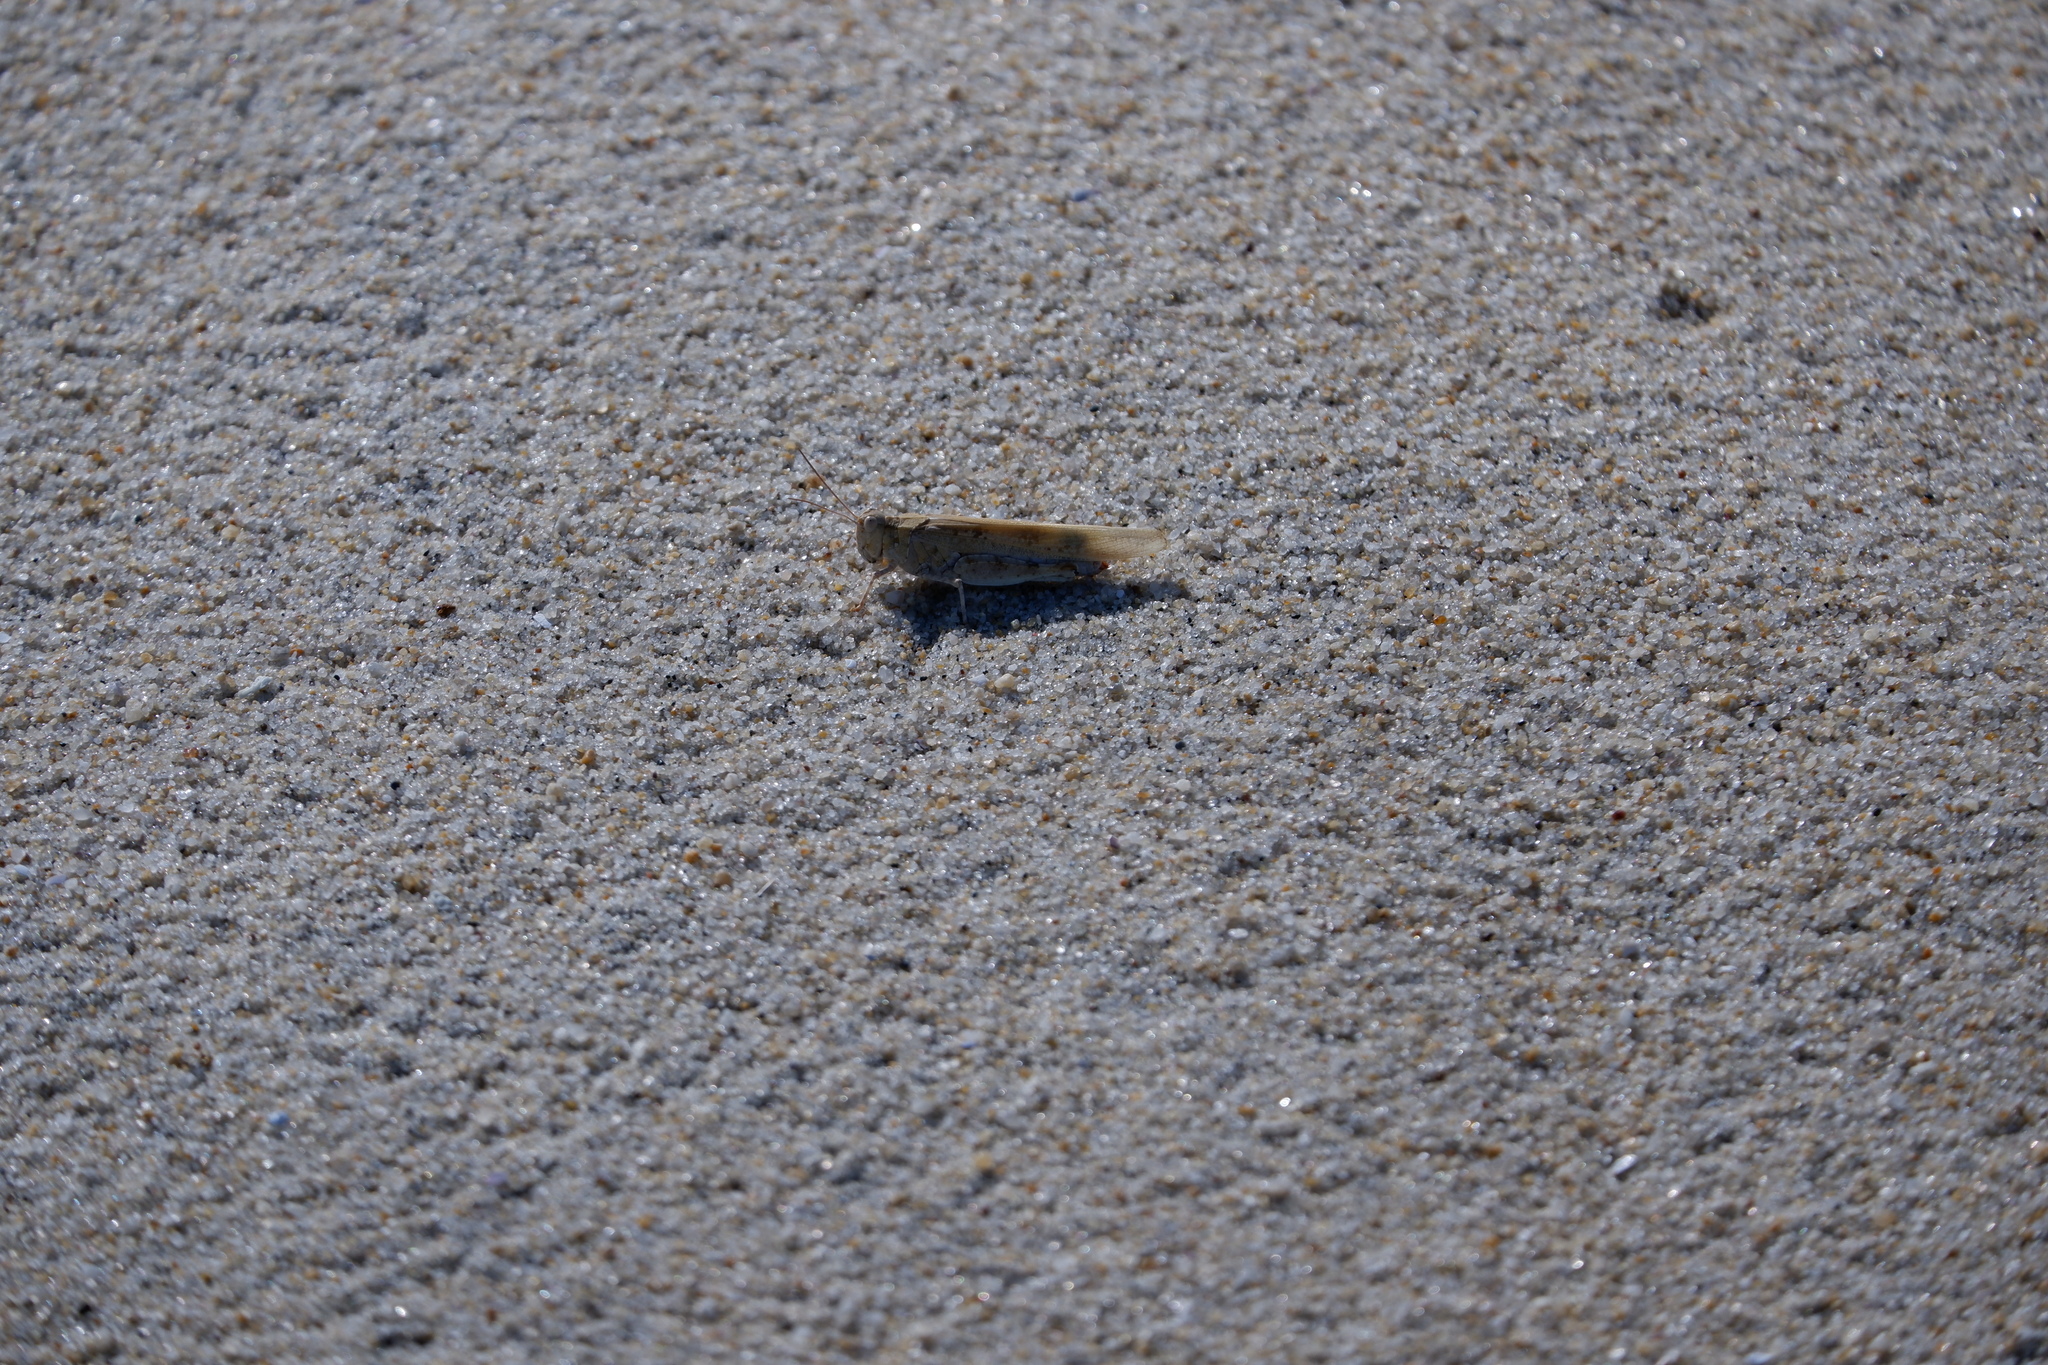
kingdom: Animalia
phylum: Arthropoda
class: Insecta
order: Orthoptera
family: Acrididae
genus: Trimerotropis
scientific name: Trimerotropis maritima
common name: Seaside locust
